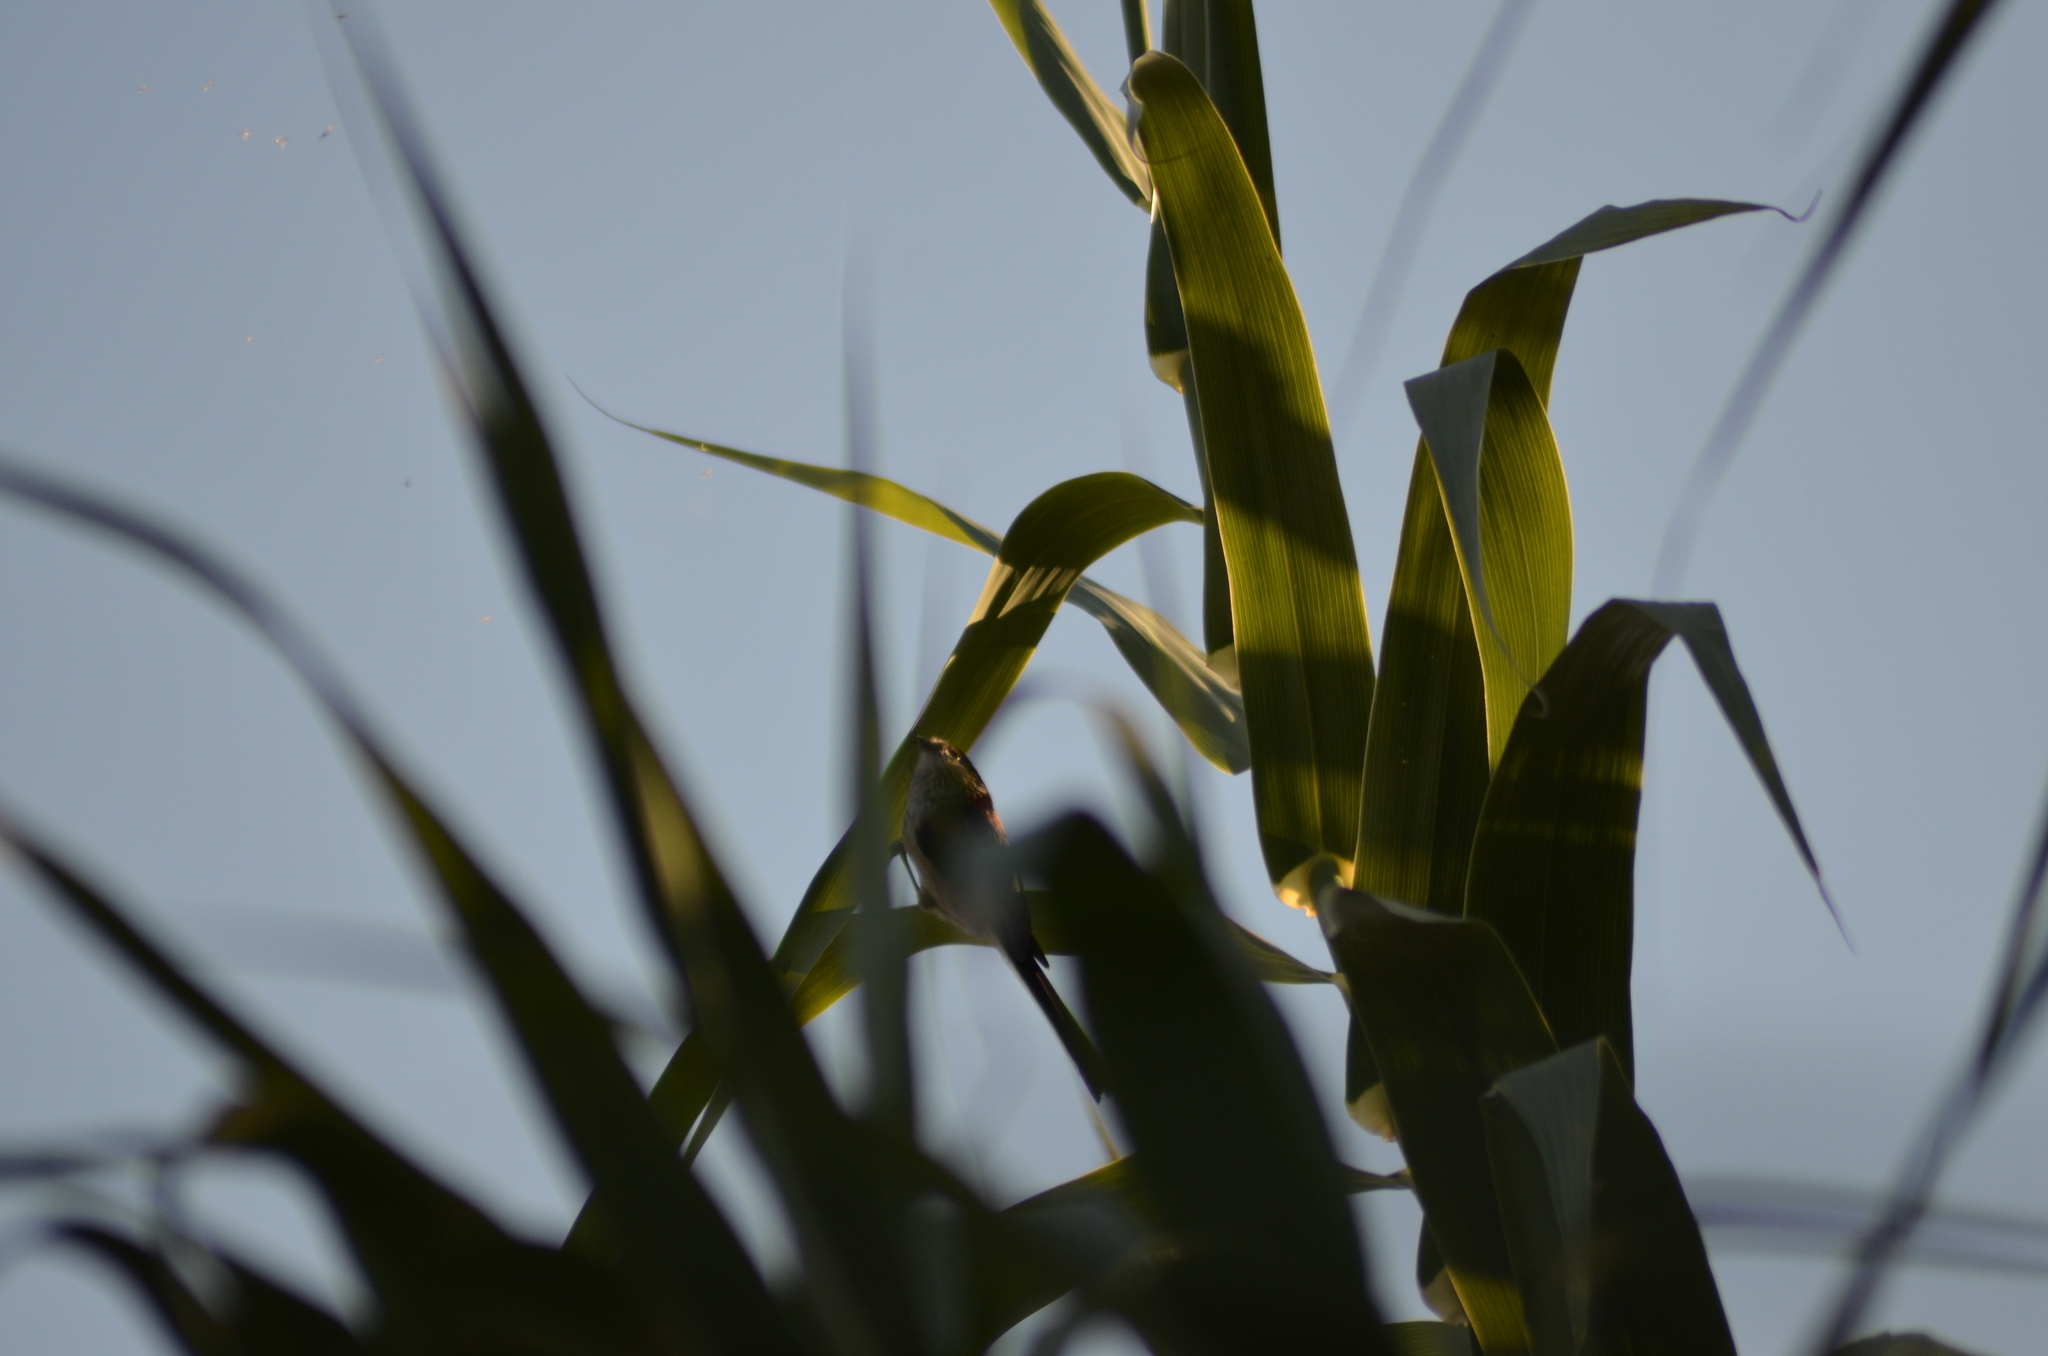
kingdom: Animalia
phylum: Chordata
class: Aves
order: Passeriformes
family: Aegithalidae
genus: Aegithalos
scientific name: Aegithalos caudatus
